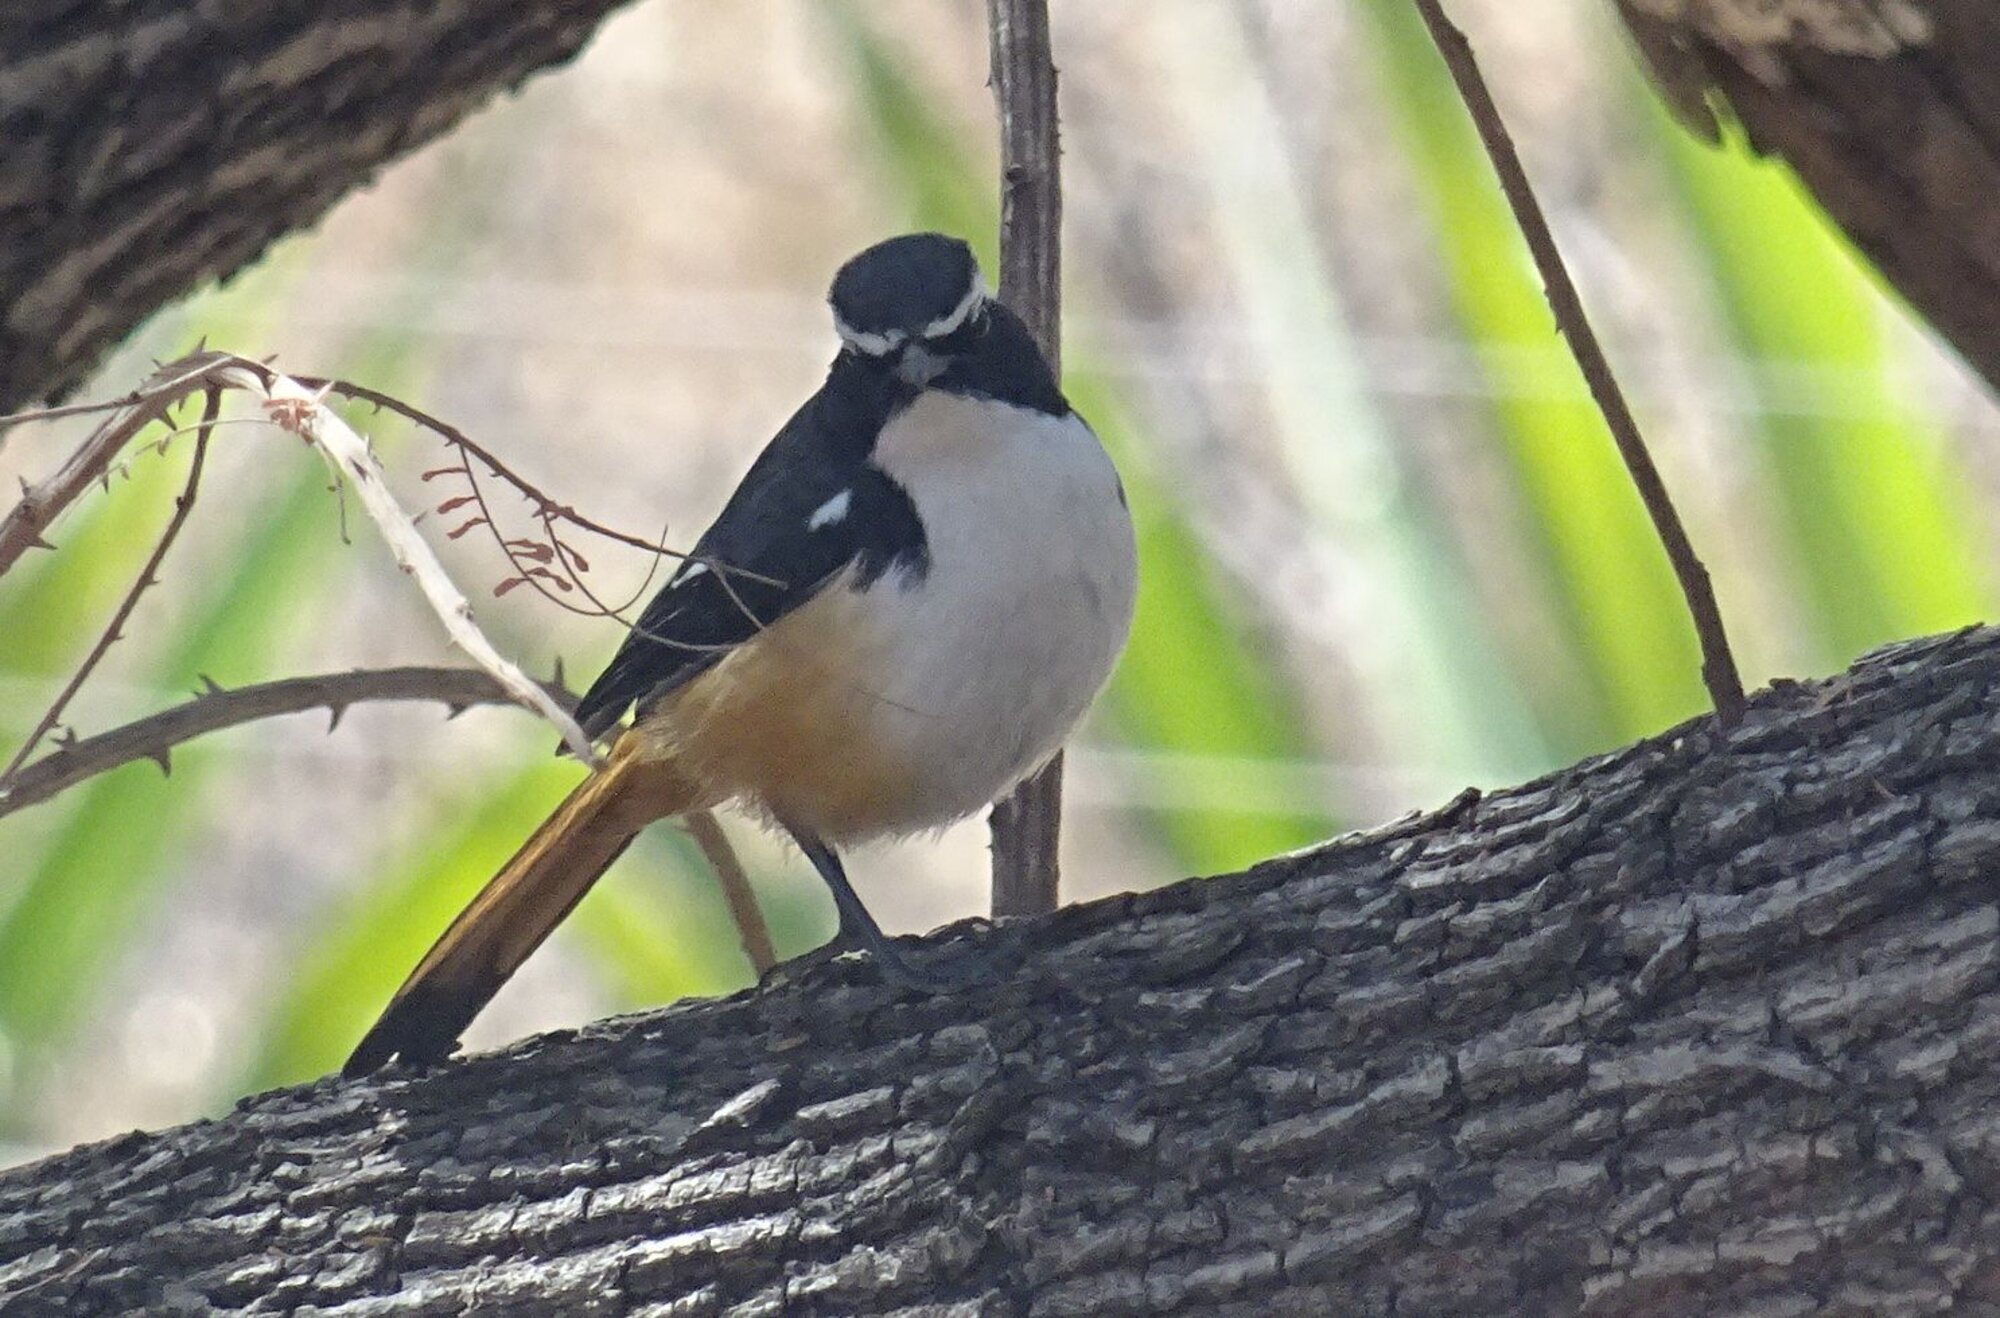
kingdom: Animalia
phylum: Chordata
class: Aves
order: Passeriformes
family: Muscicapidae
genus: Cossypha
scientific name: Cossypha humeralis
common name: White-throated robin-chat
